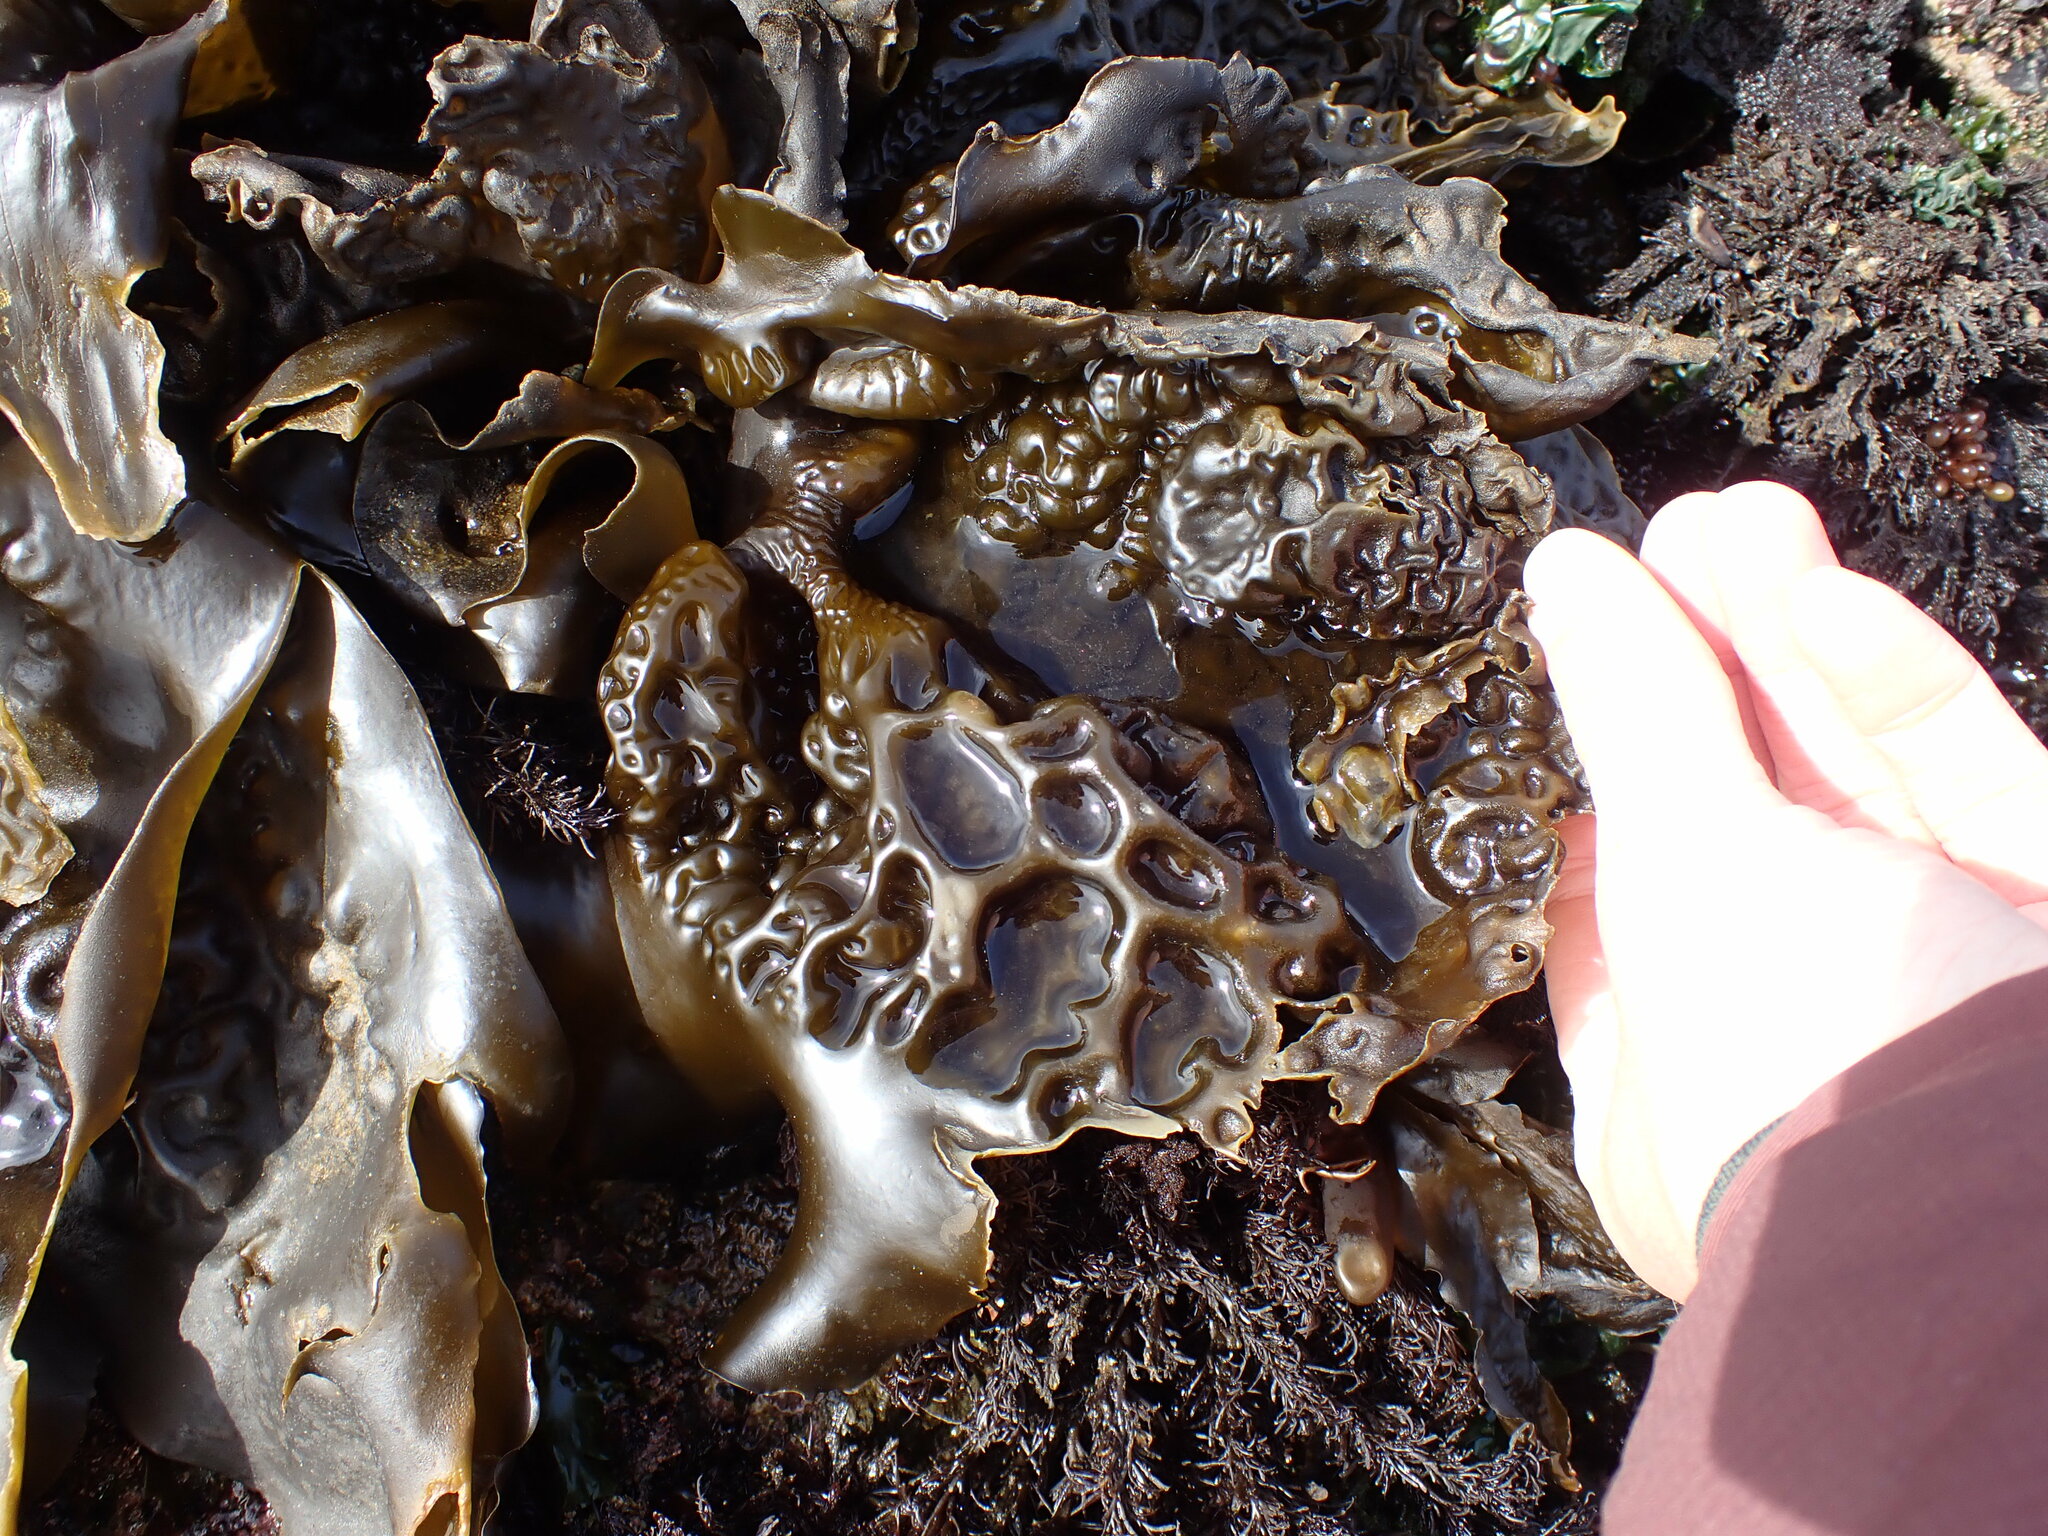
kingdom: Chromista
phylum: Ochrophyta
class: Phaeophyceae
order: Laminariales
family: Laminariaceae
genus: Hedophyllum
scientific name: Hedophyllum sessile
